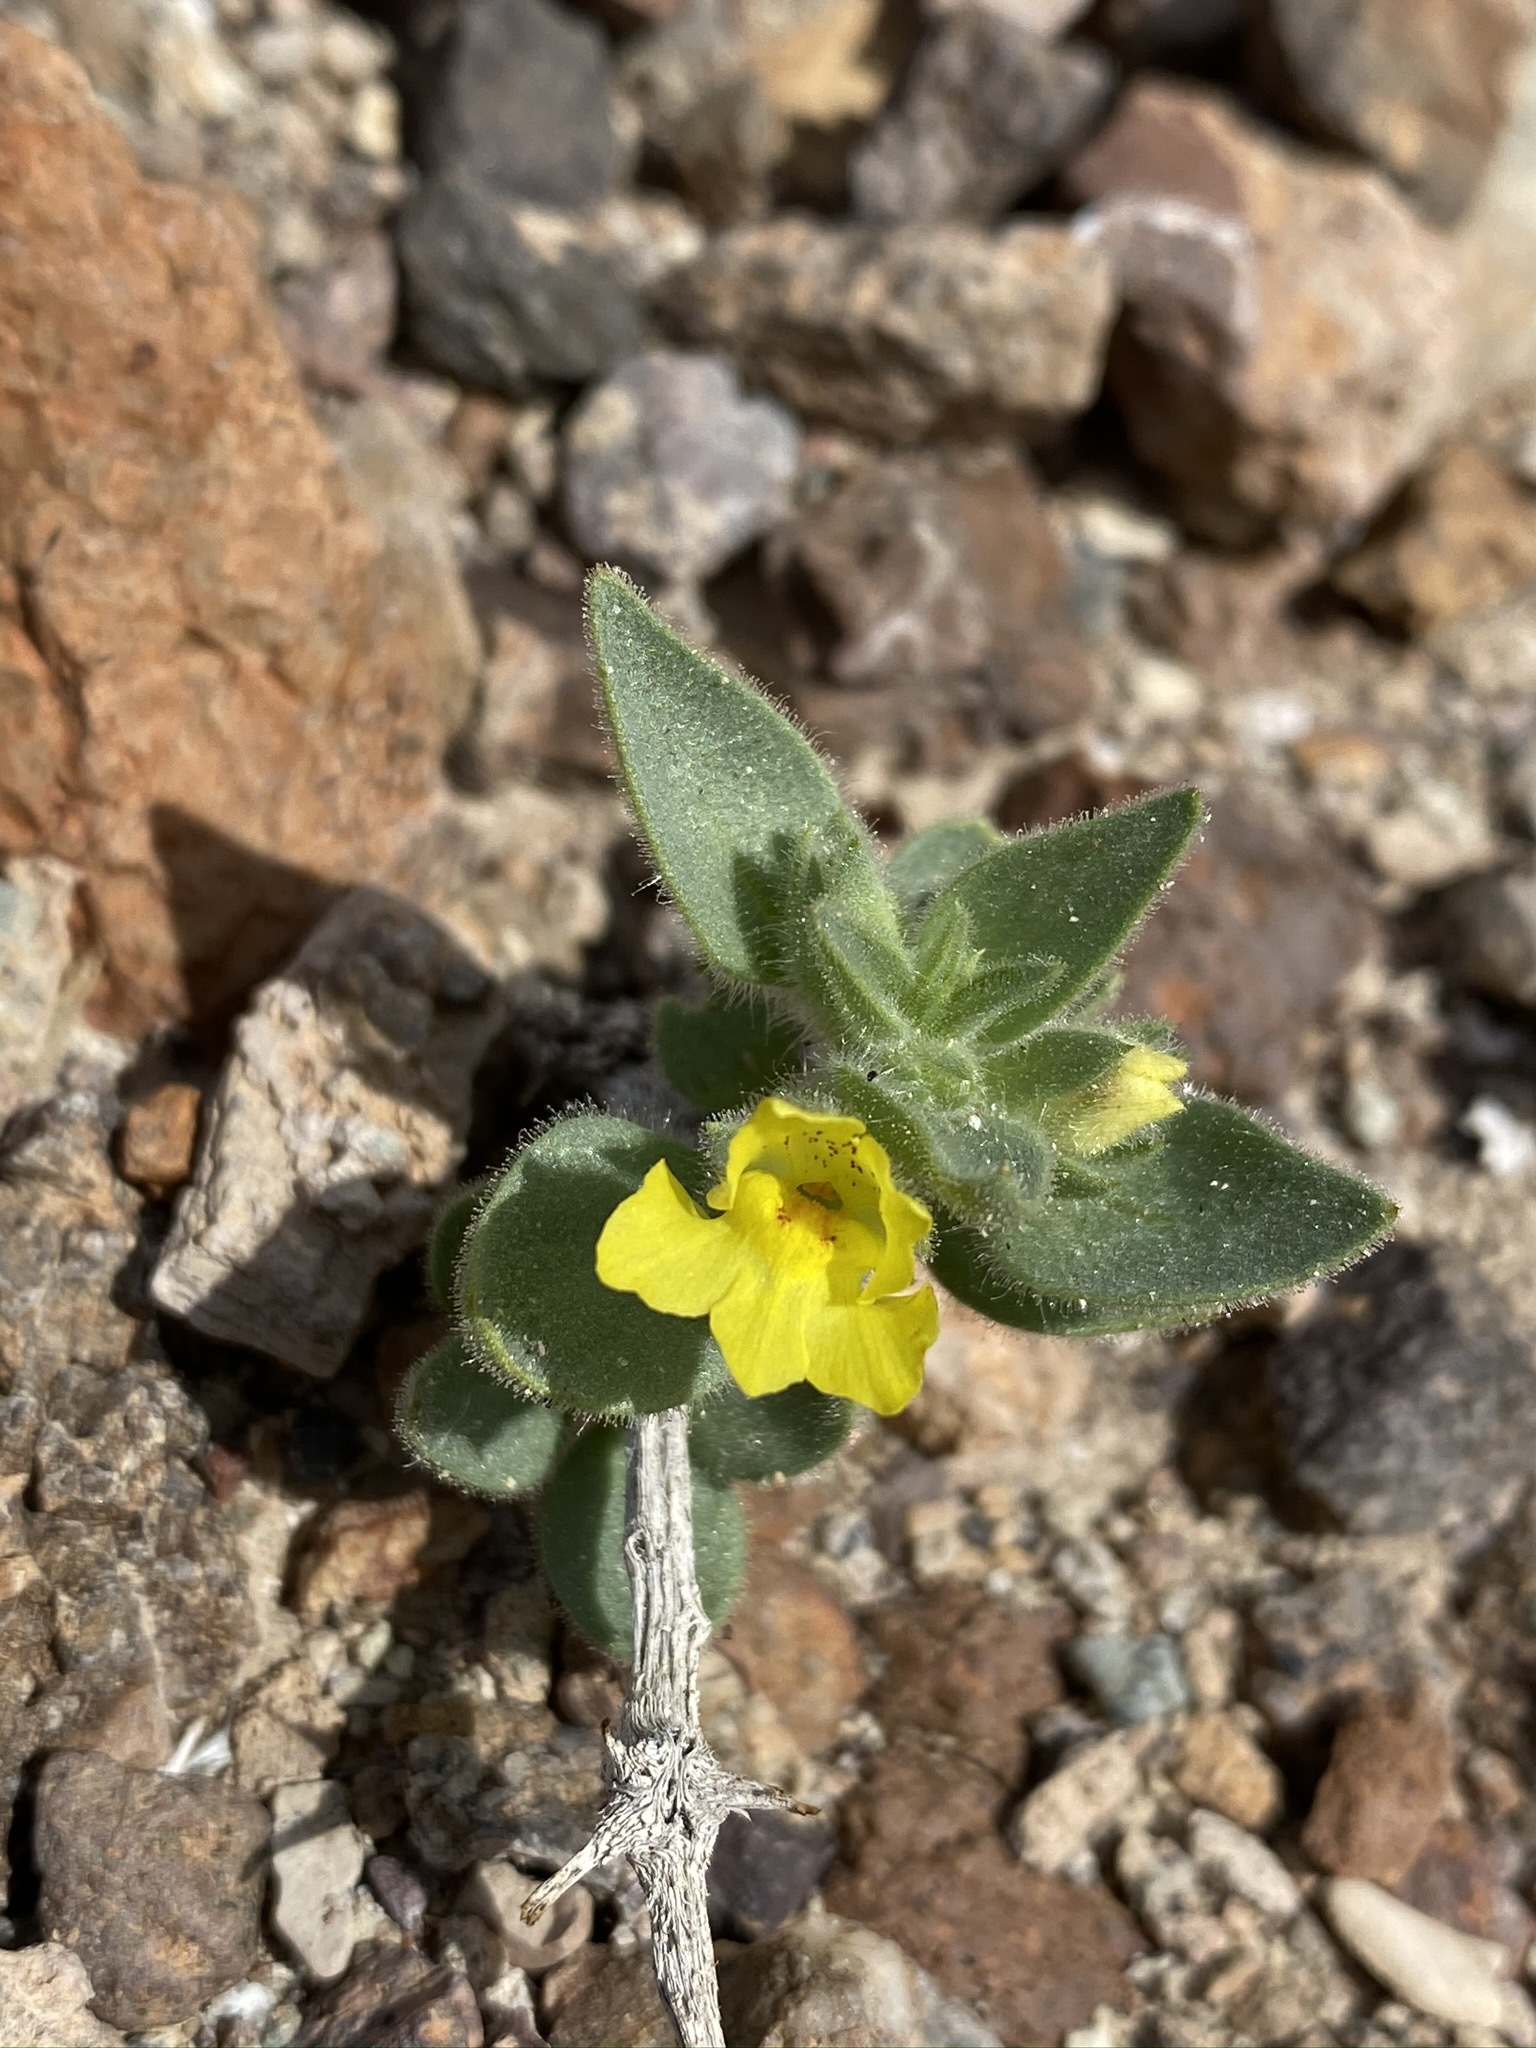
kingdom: Plantae
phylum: Tracheophyta
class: Magnoliopsida
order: Lamiales
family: Plantaginaceae
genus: Mohavea
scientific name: Mohavea breviflora
